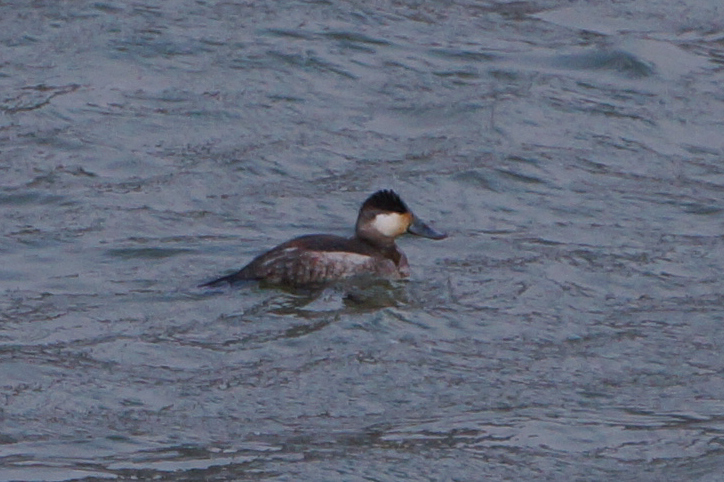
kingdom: Animalia
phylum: Chordata
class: Aves
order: Anseriformes
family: Anatidae
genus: Oxyura
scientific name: Oxyura jamaicensis
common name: Ruddy duck
